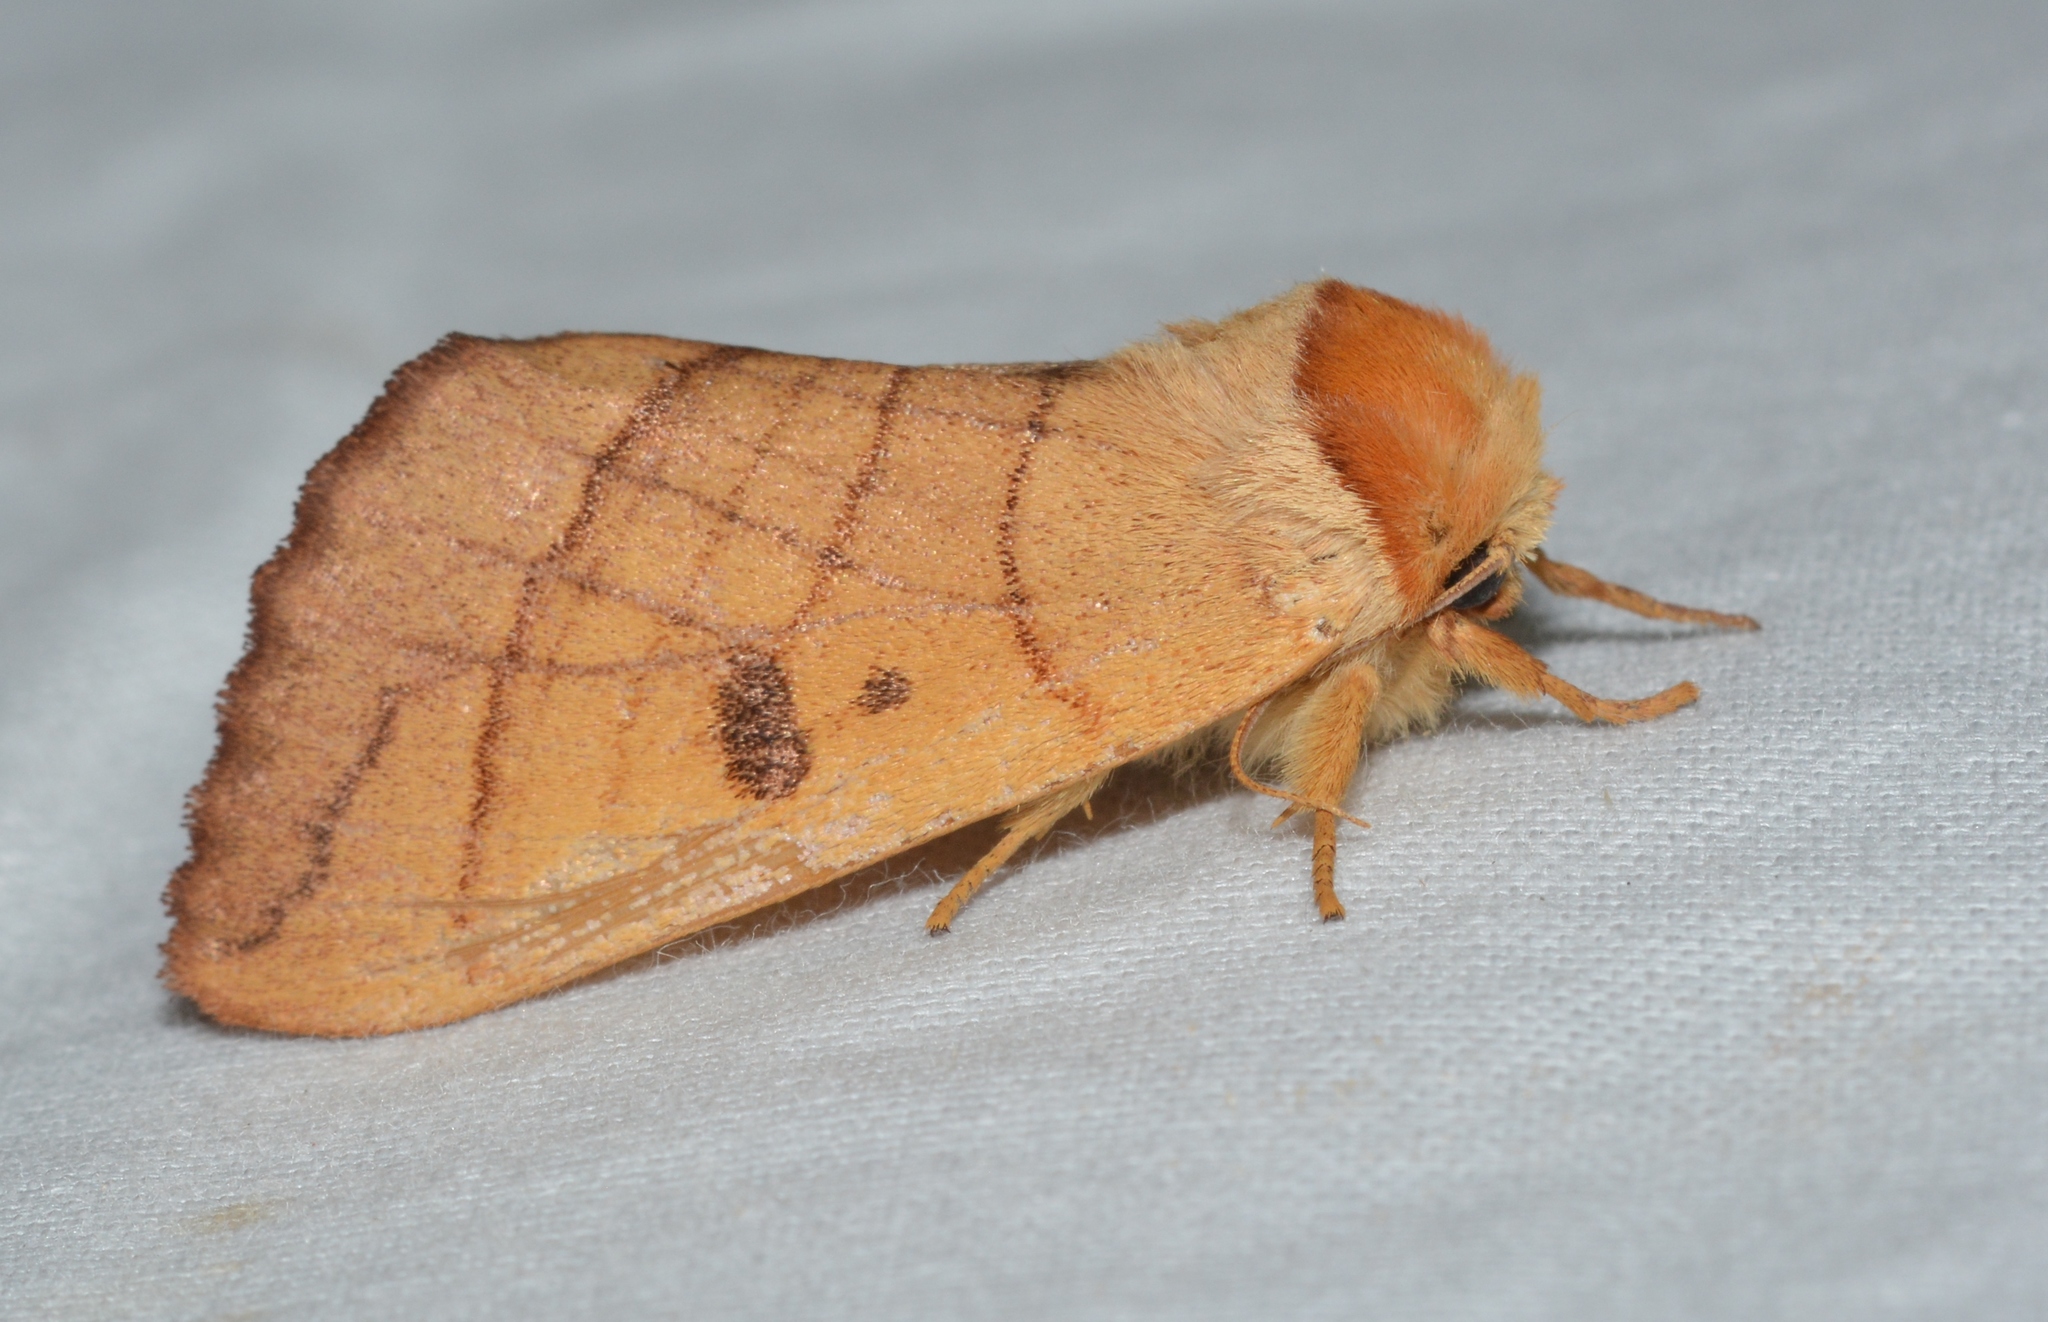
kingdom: Animalia
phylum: Arthropoda
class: Insecta
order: Lepidoptera
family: Notodontidae
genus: Datana
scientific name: Datana perspicua
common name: Spotted datana
